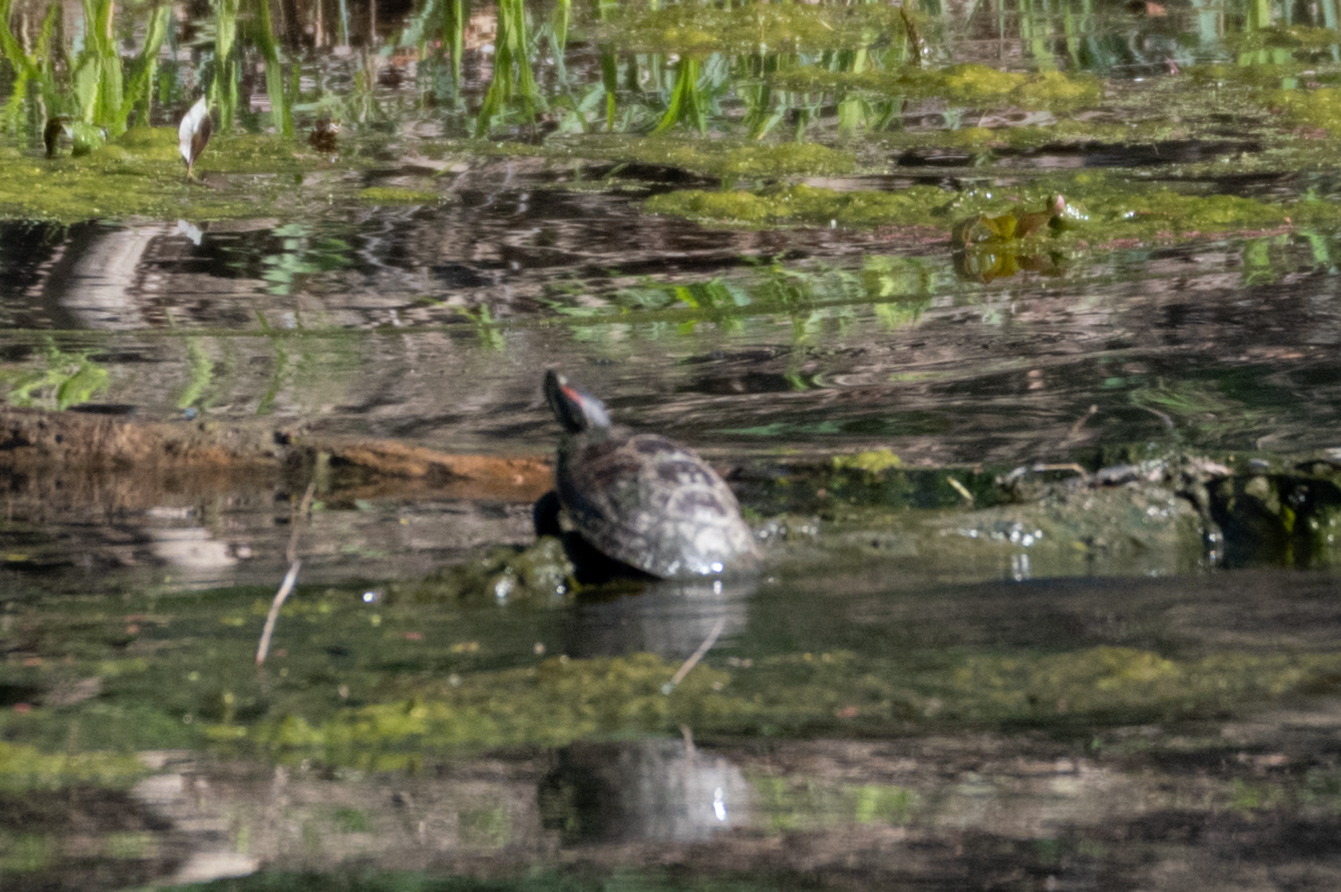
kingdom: Animalia
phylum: Chordata
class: Testudines
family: Emydidae
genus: Trachemys
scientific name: Trachemys scripta
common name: Slider
